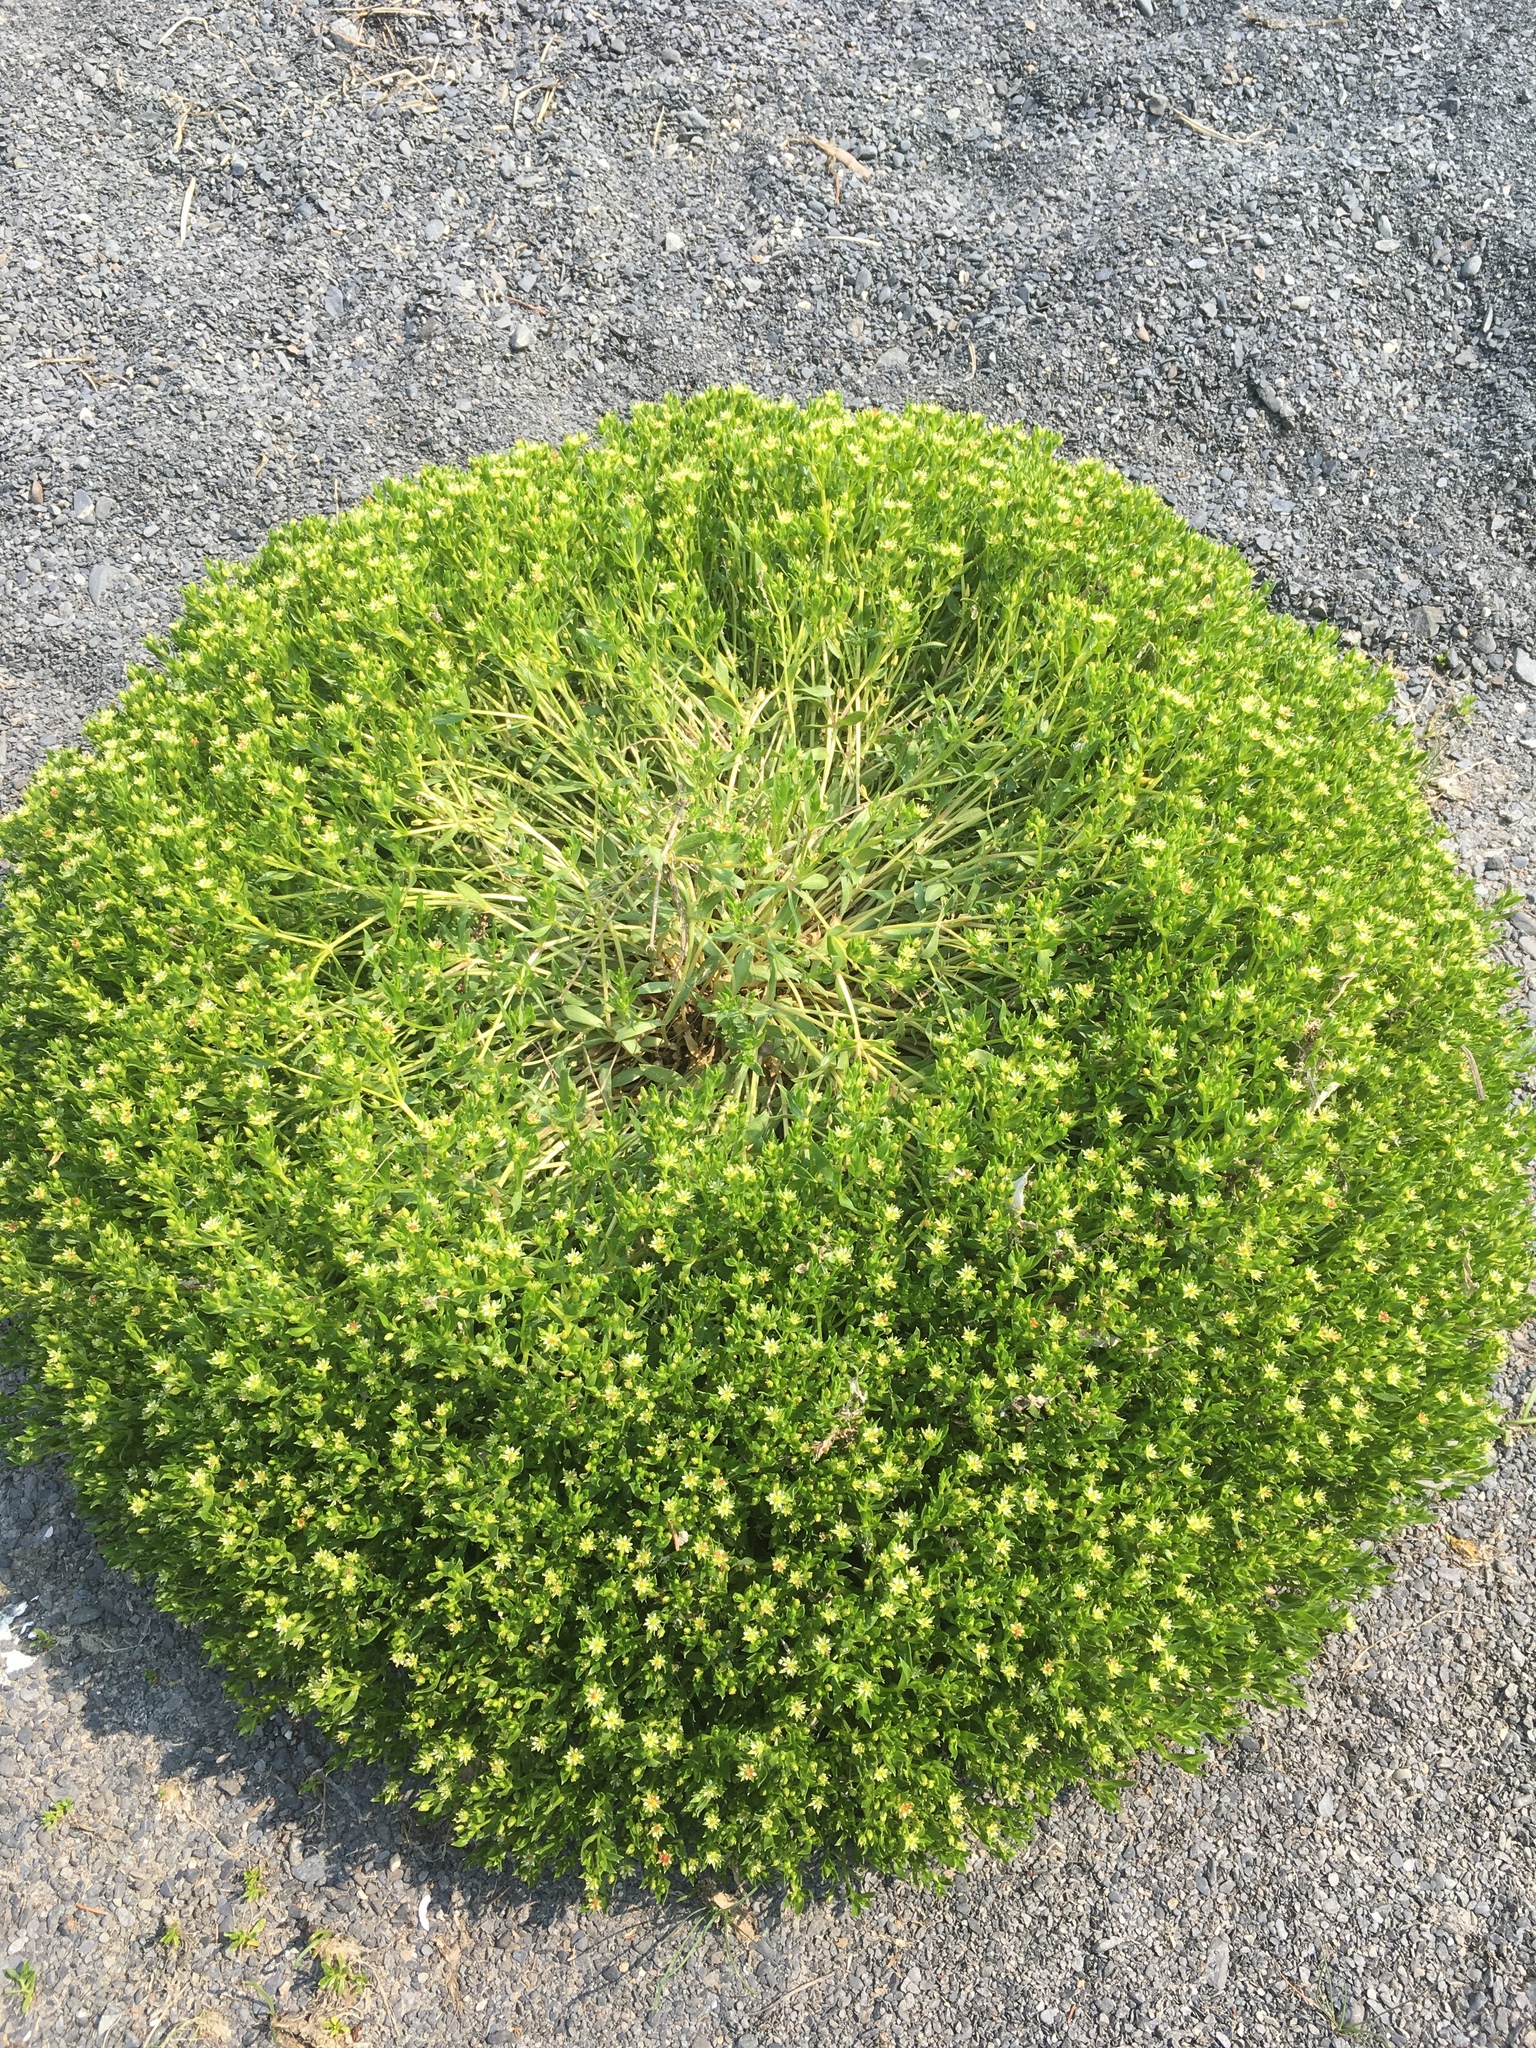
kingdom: Plantae
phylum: Tracheophyta
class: Magnoliopsida
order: Caryophyllales
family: Caryophyllaceae
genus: Honckenya
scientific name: Honckenya peploides
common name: Sea sandwort
